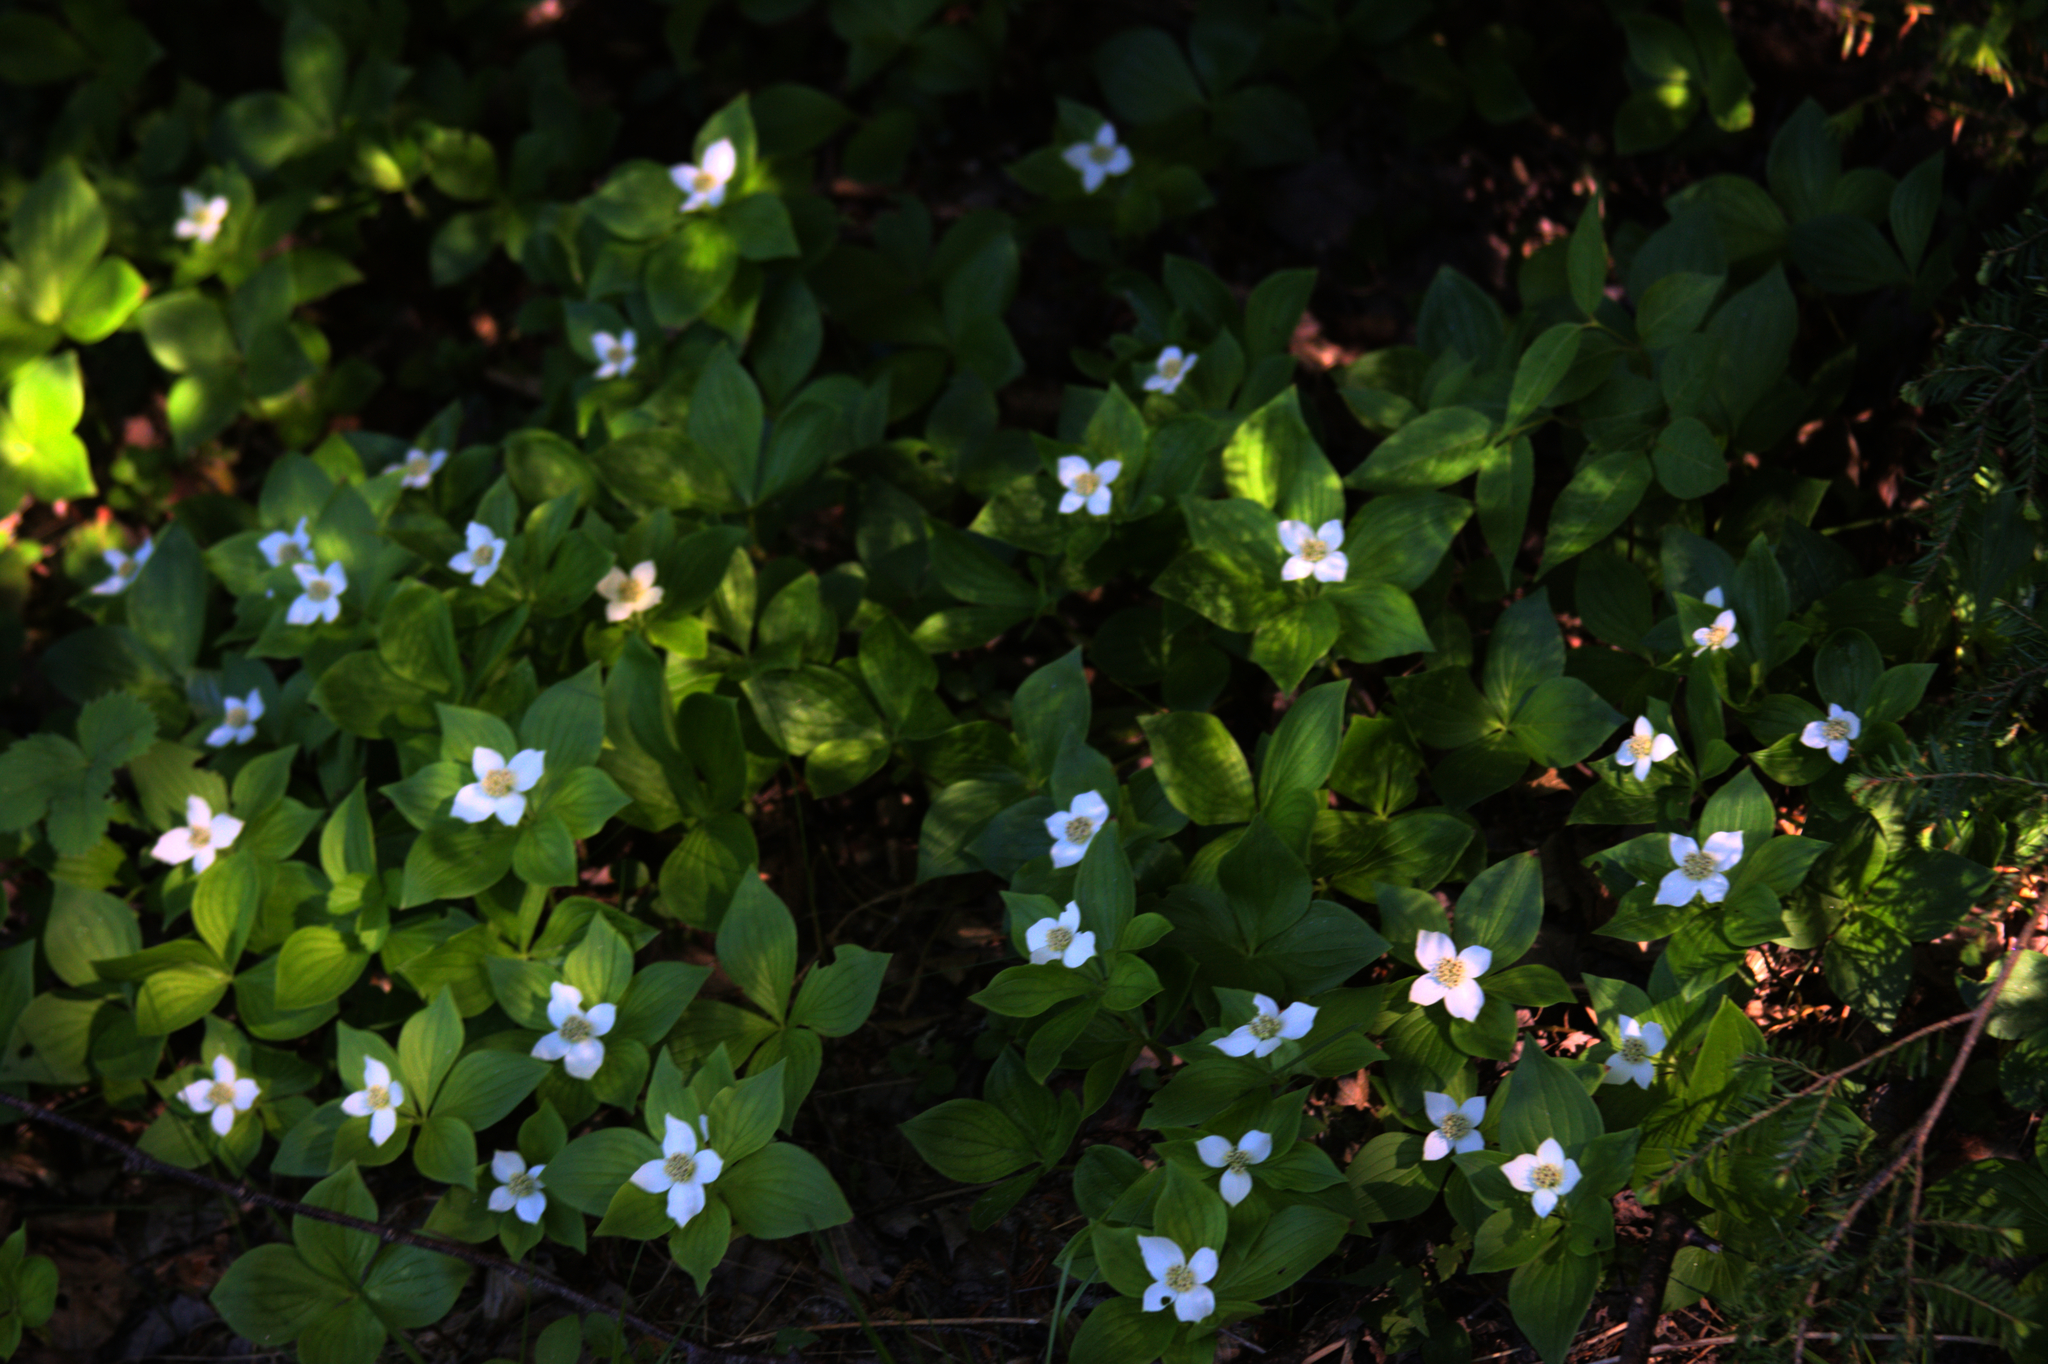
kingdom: Plantae
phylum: Tracheophyta
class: Magnoliopsida
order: Cornales
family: Cornaceae
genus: Cornus
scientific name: Cornus canadensis
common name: Creeping dogwood
